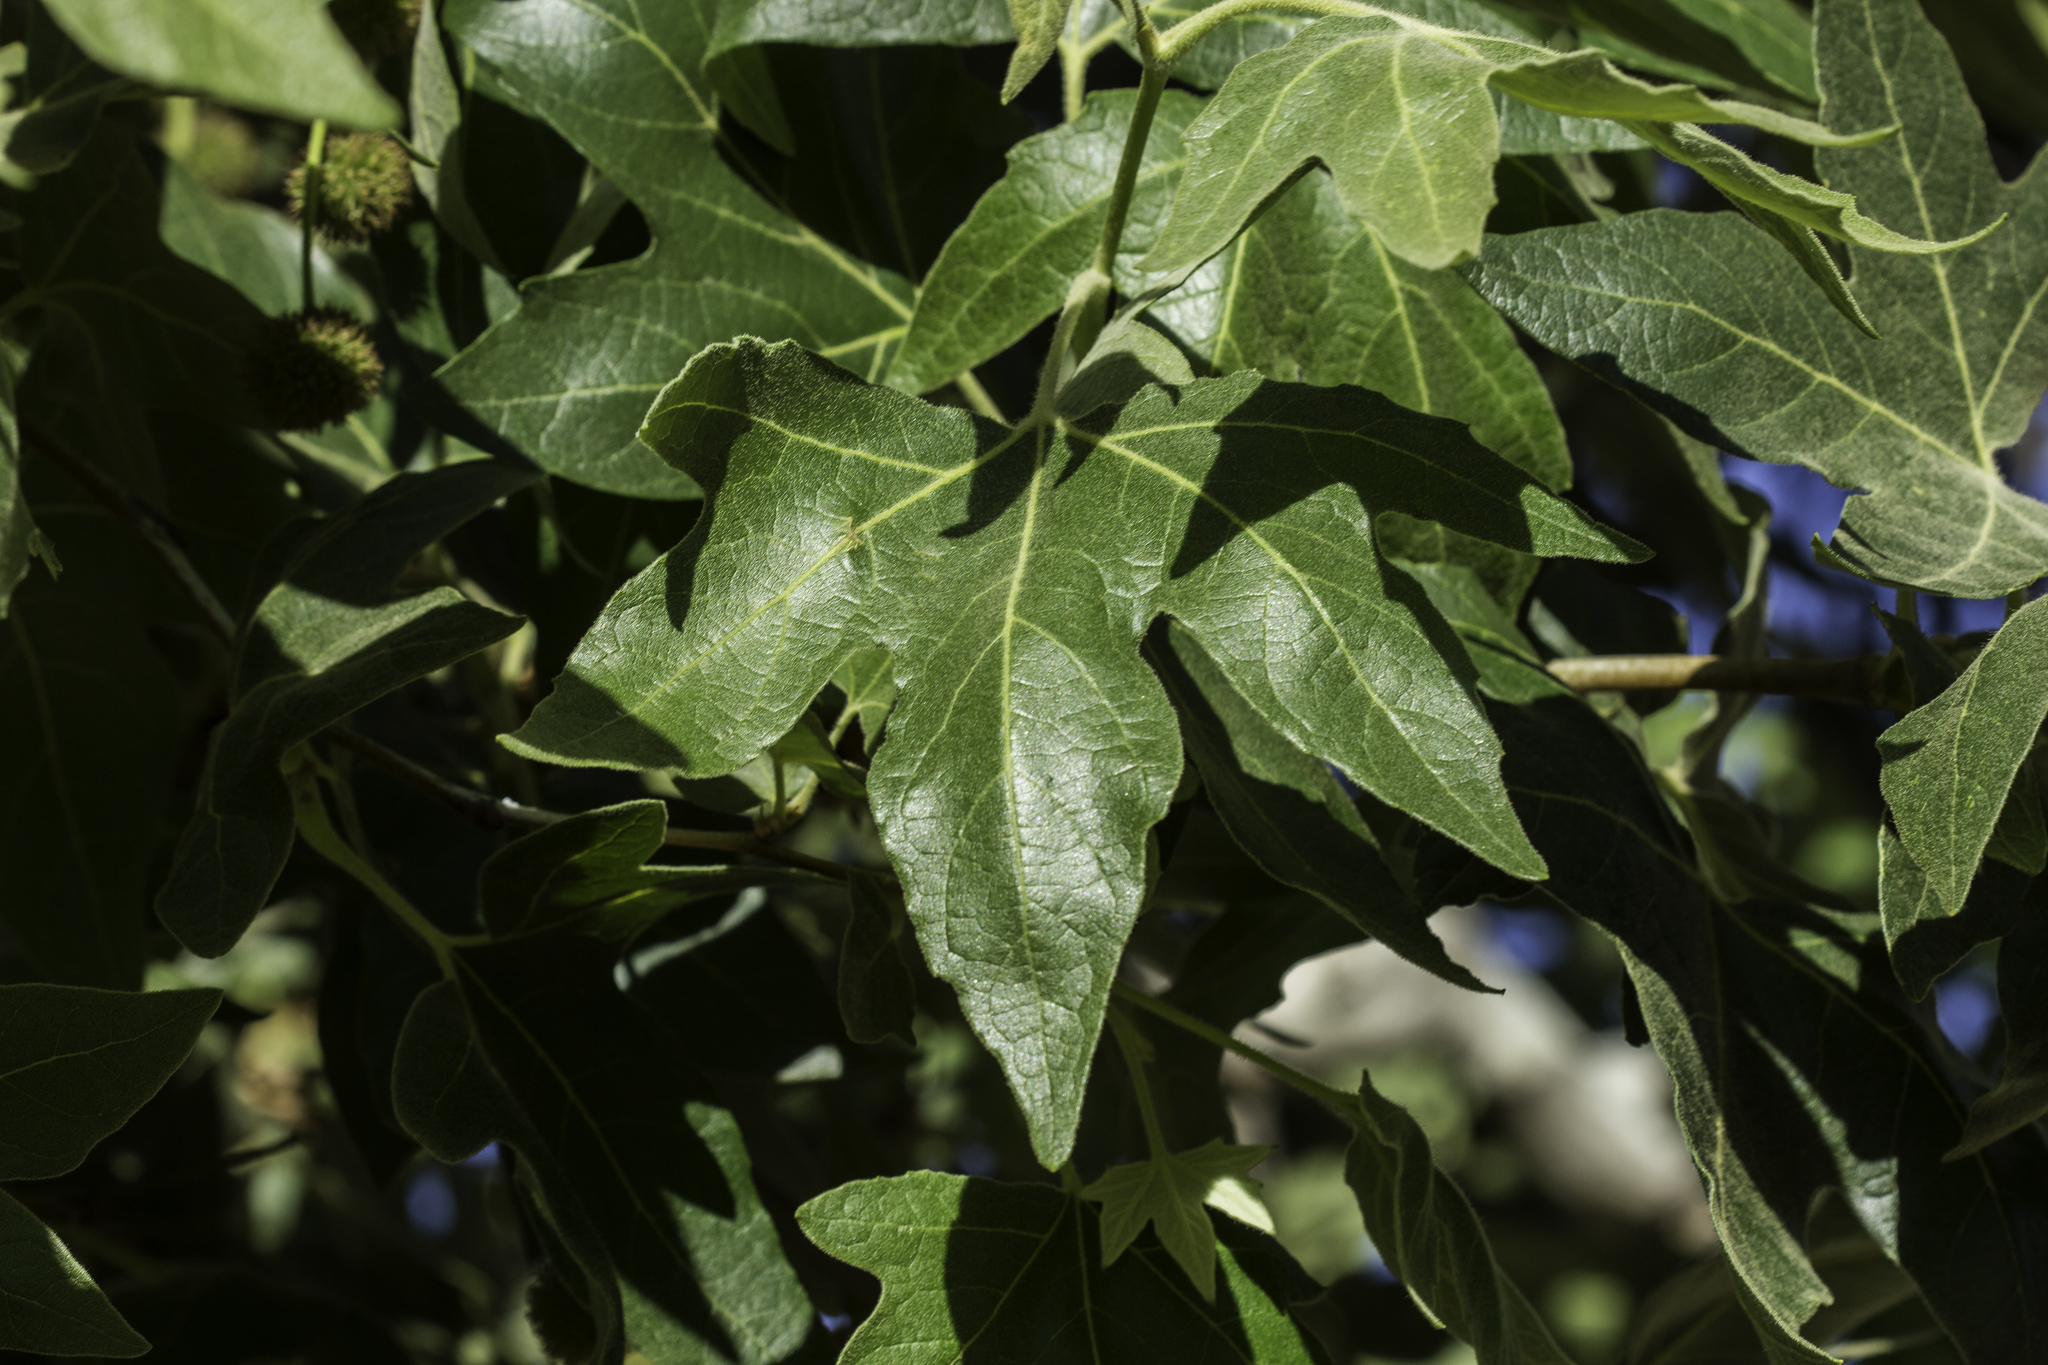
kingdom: Plantae
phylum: Tracheophyta
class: Magnoliopsida
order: Proteales
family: Platanaceae
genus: Platanus
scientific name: Platanus racemosa
